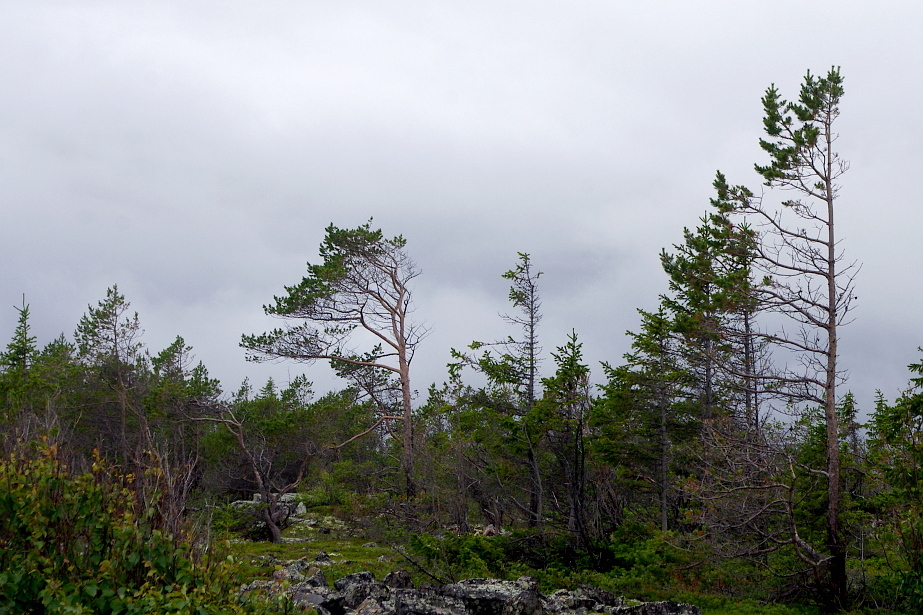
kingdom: Plantae
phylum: Tracheophyta
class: Pinopsida
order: Pinales
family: Pinaceae
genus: Pinus
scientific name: Pinus sylvestris
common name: Scots pine
